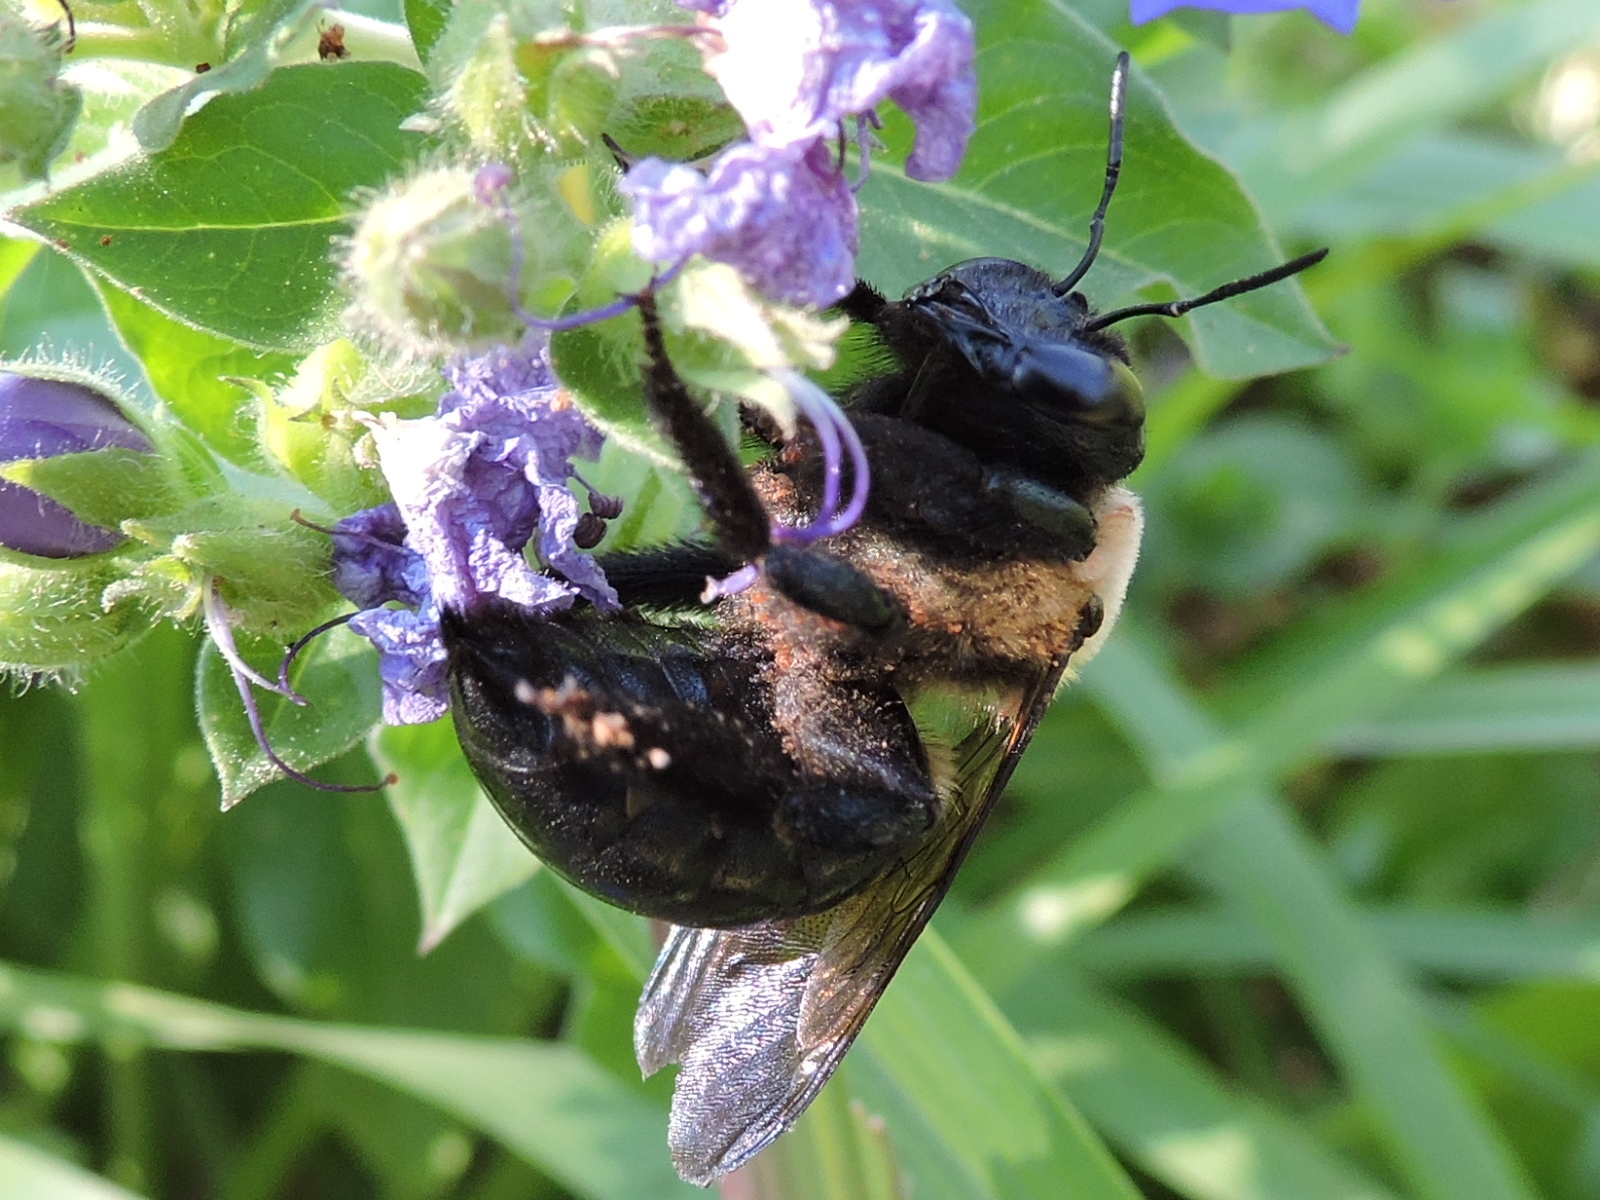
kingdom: Animalia
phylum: Arthropoda
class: Insecta
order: Hymenoptera
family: Apidae
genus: Xylocopa
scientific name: Xylocopa virginica
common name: Carpenter bee
